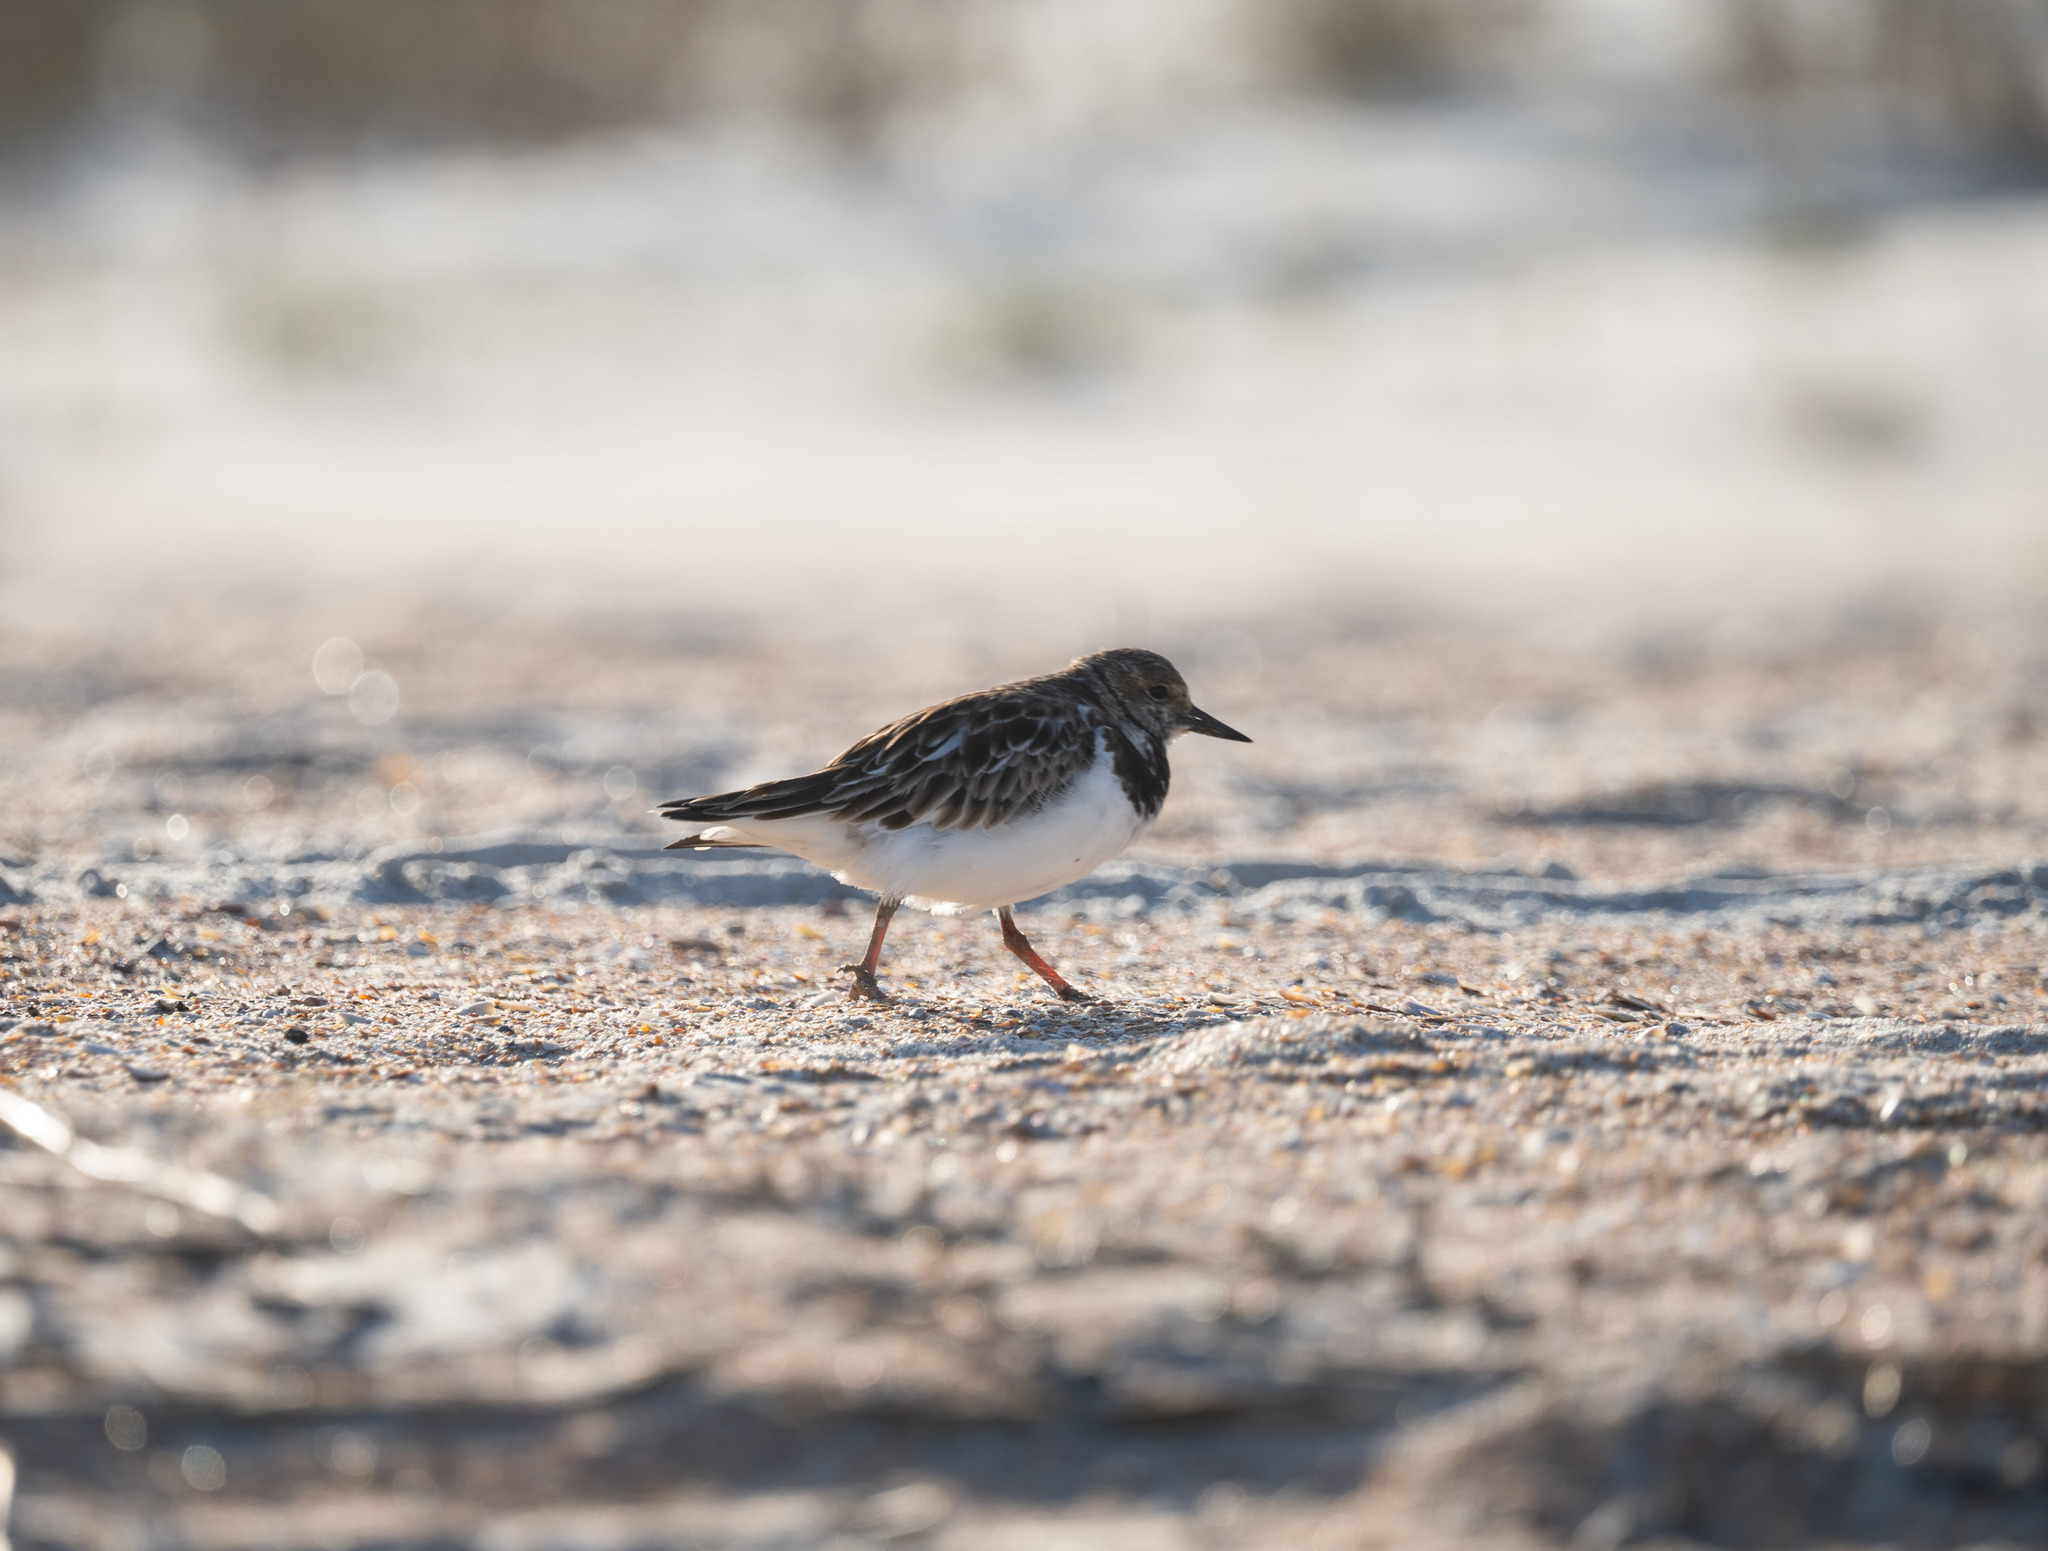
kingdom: Animalia
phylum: Chordata
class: Aves
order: Charadriiformes
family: Scolopacidae
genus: Arenaria
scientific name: Arenaria interpres
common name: Ruddy turnstone
